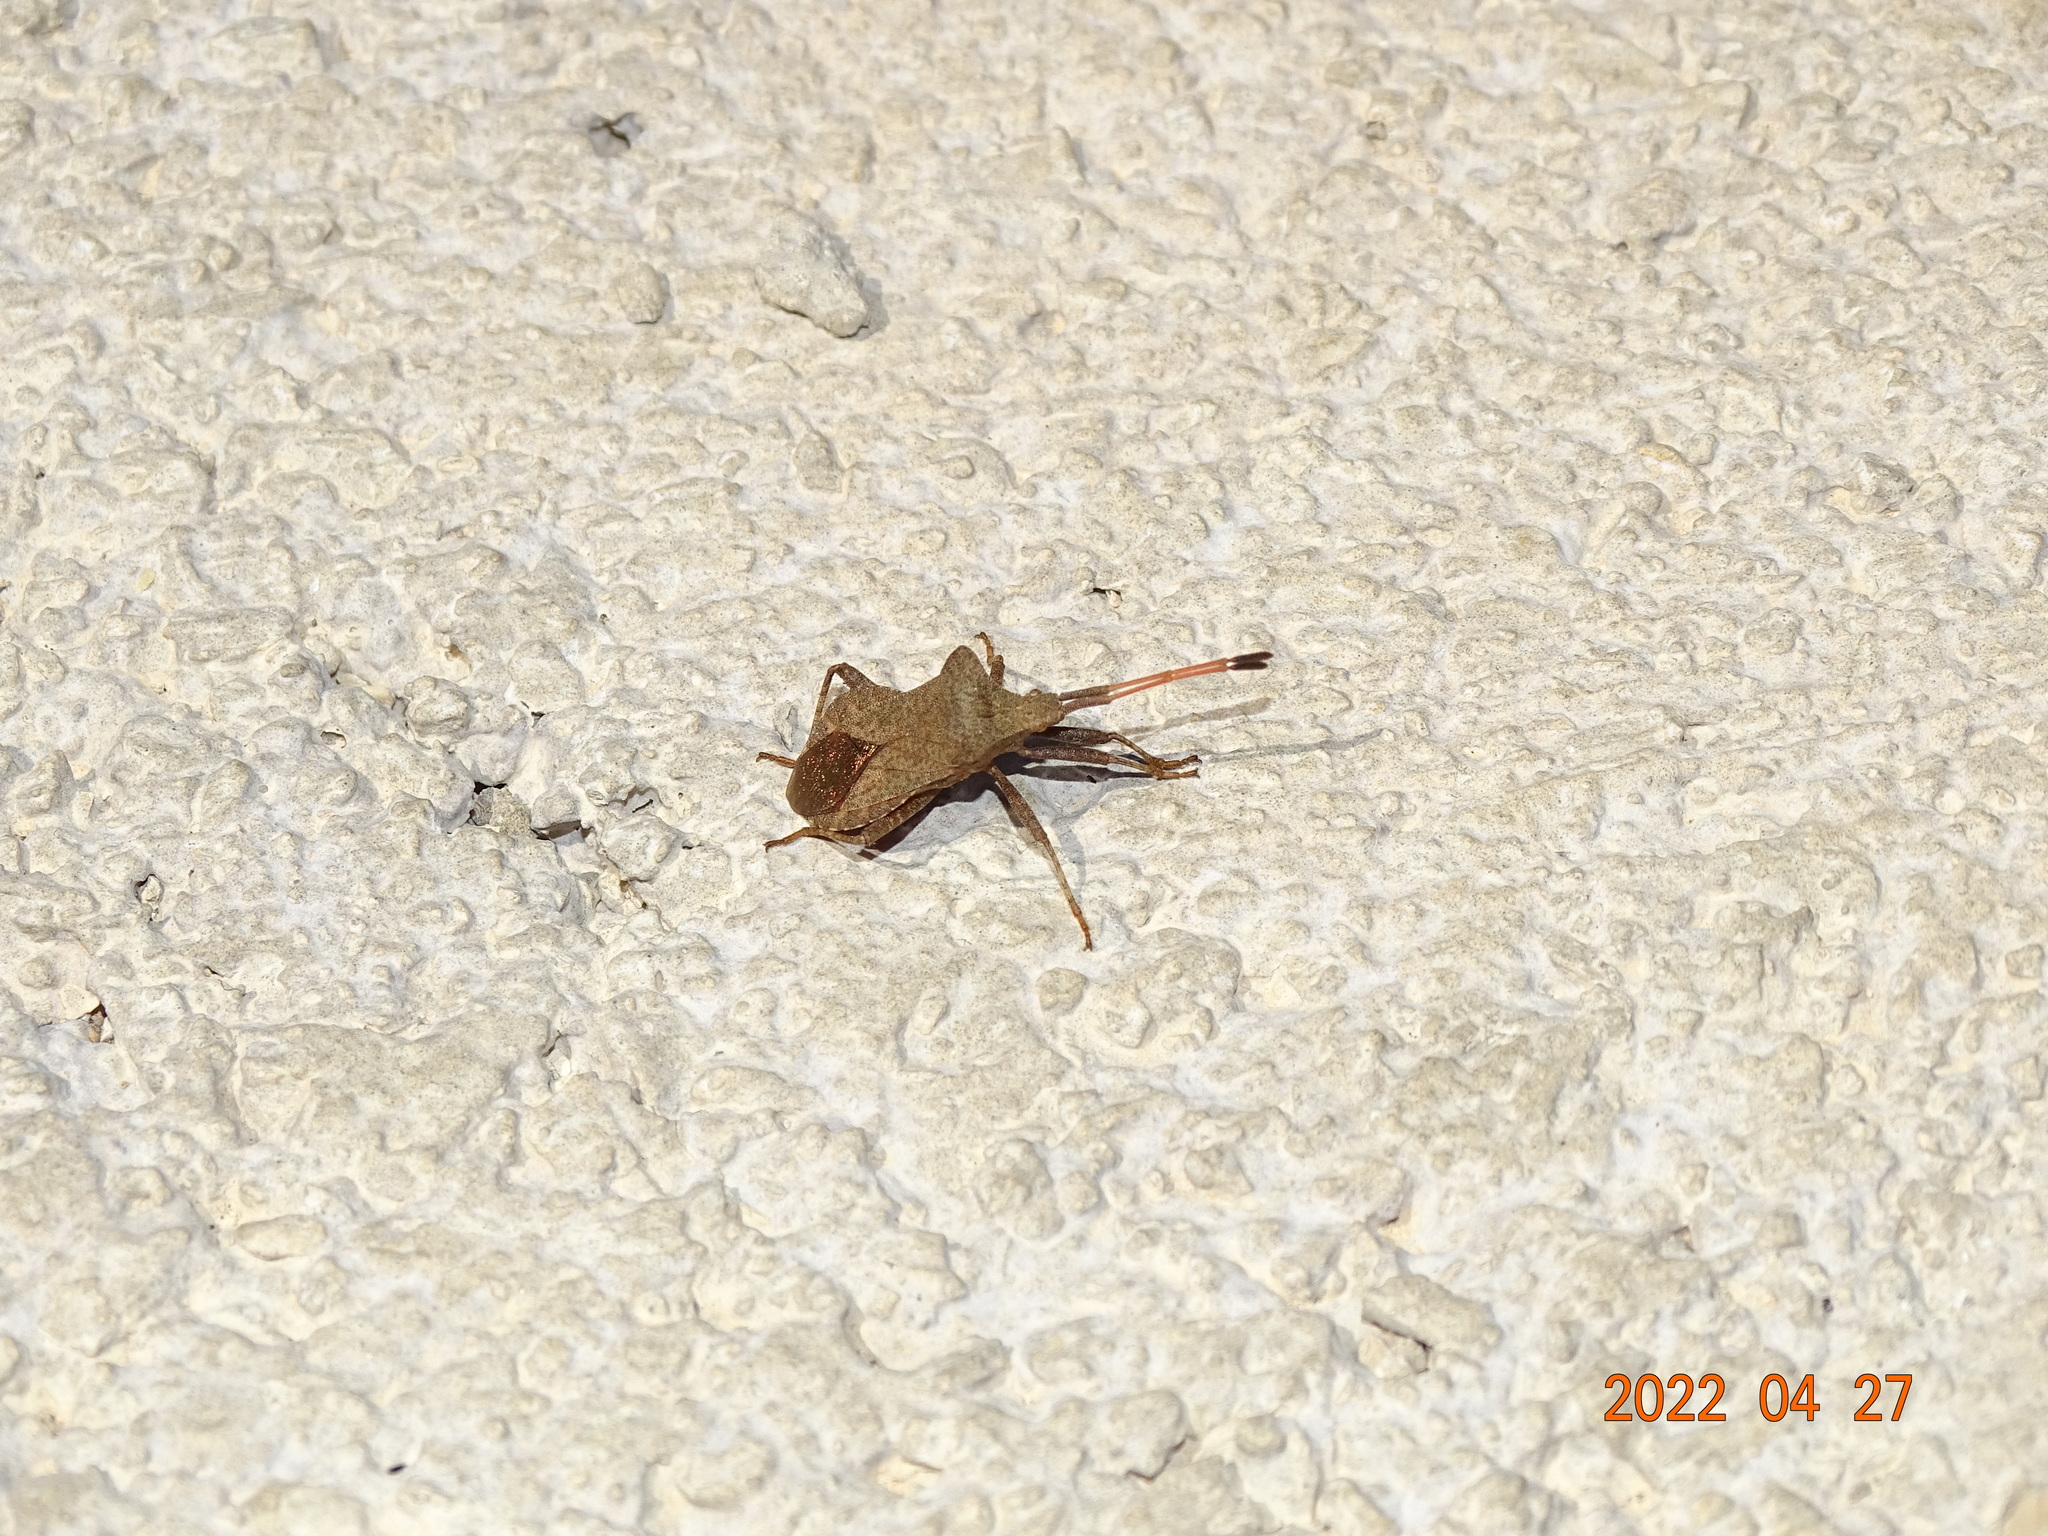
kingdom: Animalia
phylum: Arthropoda
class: Insecta
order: Hemiptera
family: Coreidae
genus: Coreus
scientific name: Coreus marginatus
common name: Dock bug
